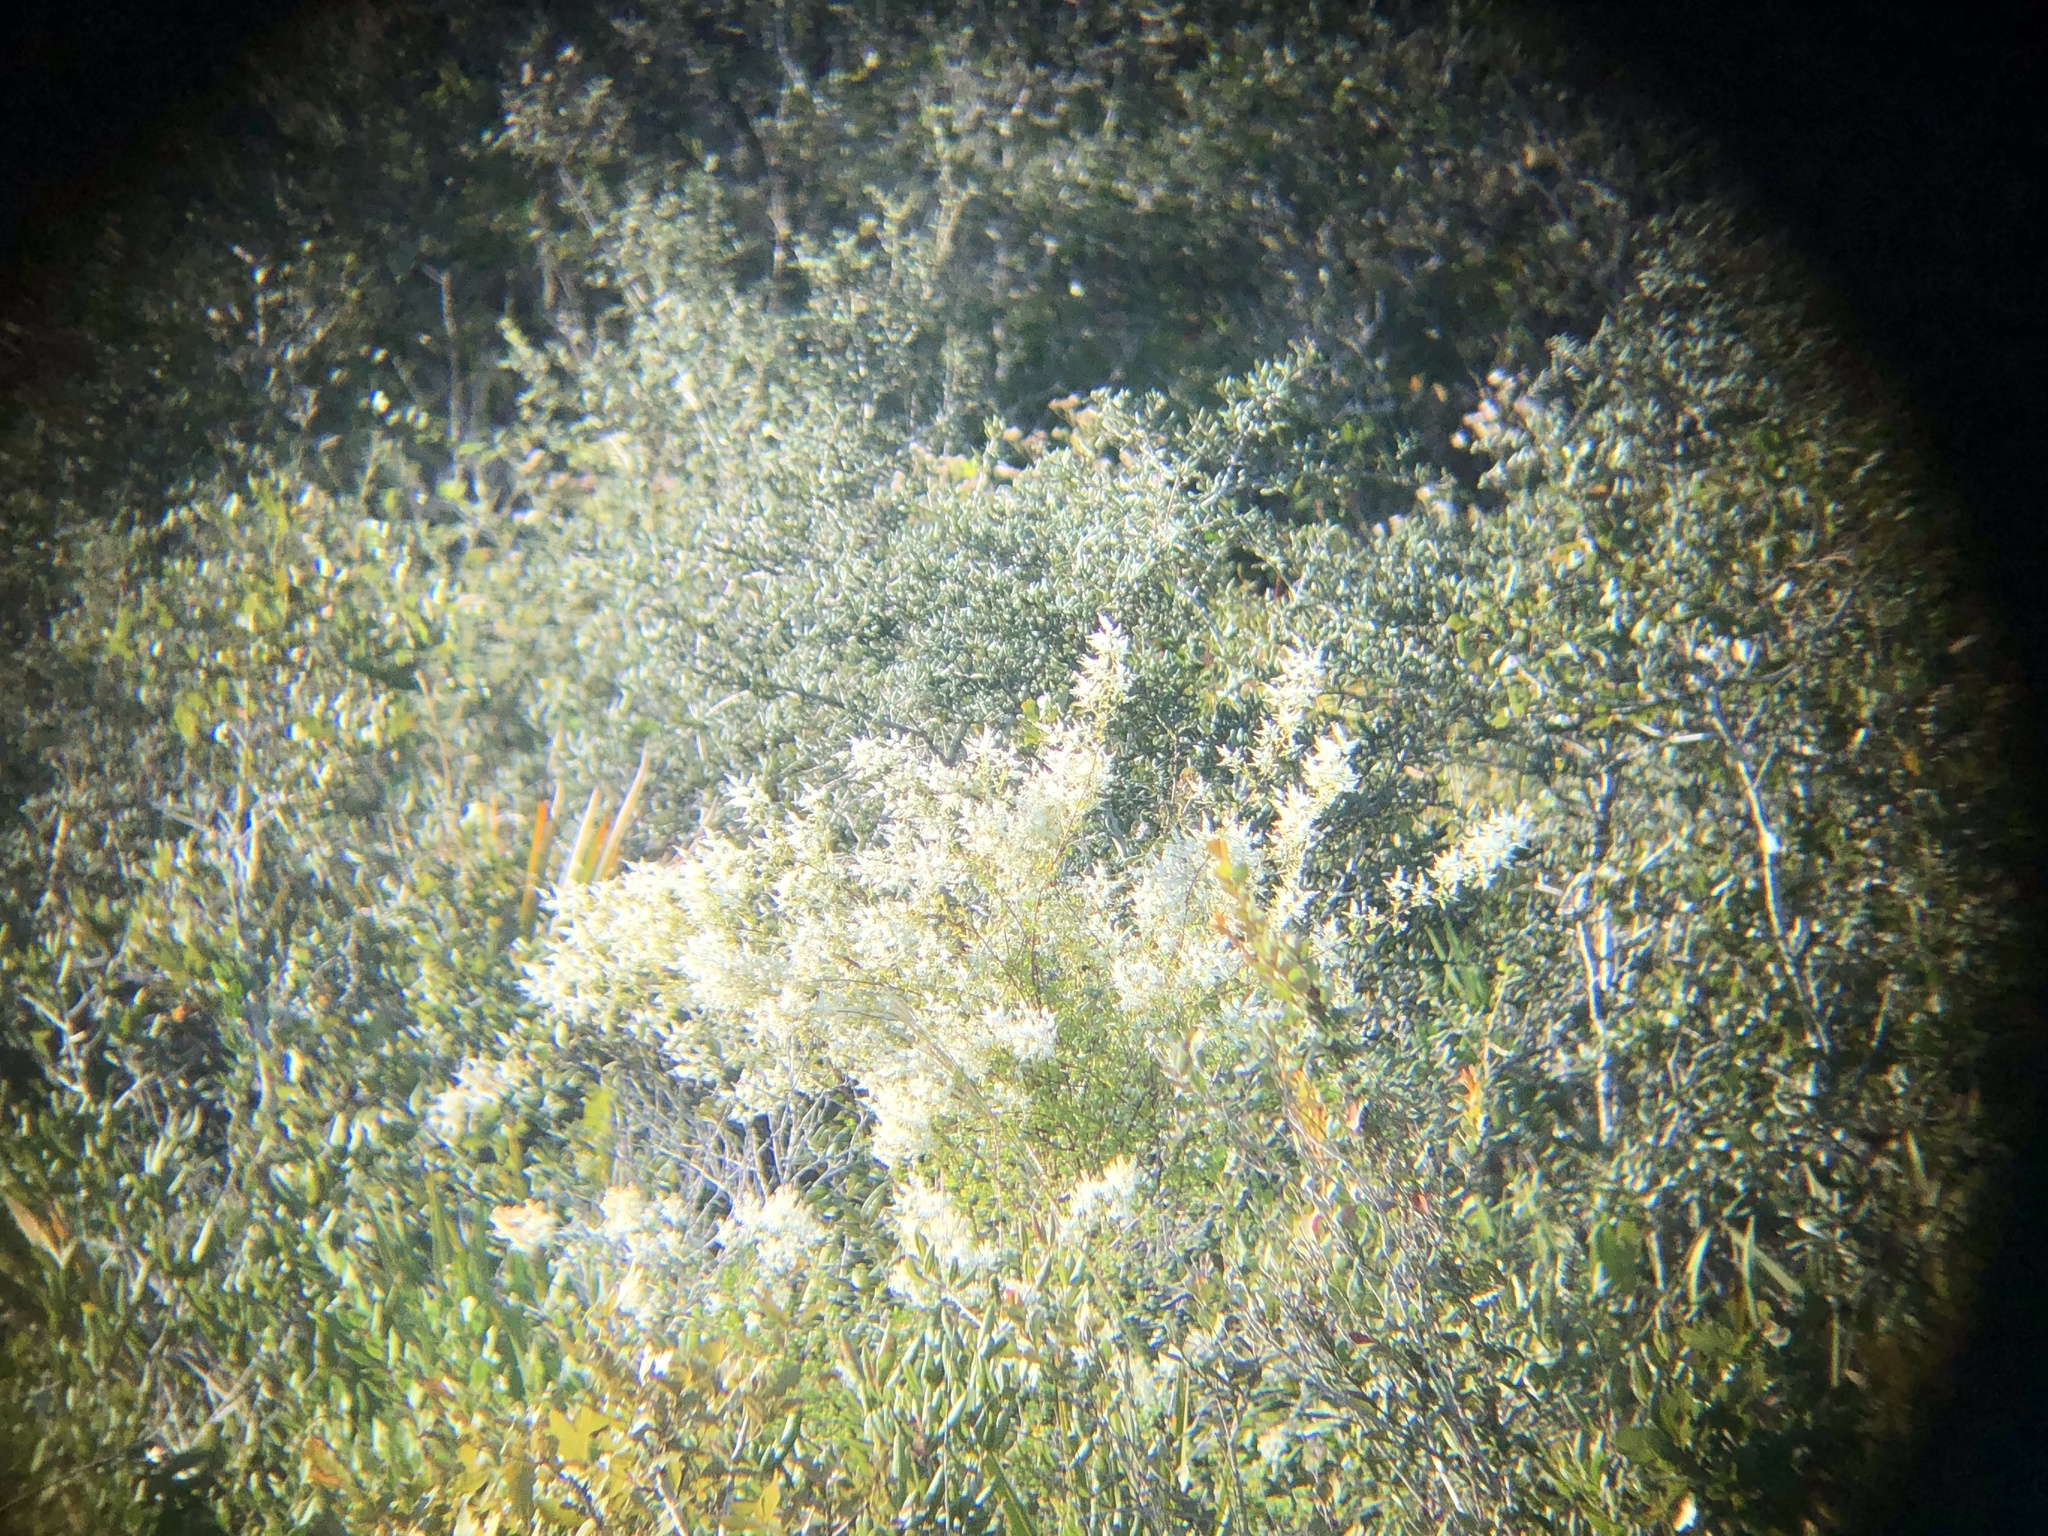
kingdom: Plantae
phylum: Tracheophyta
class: Magnoliopsida
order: Caryophyllales
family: Amaranthaceae
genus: Iresine
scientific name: Iresine diffusa
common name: Juba's-bush
